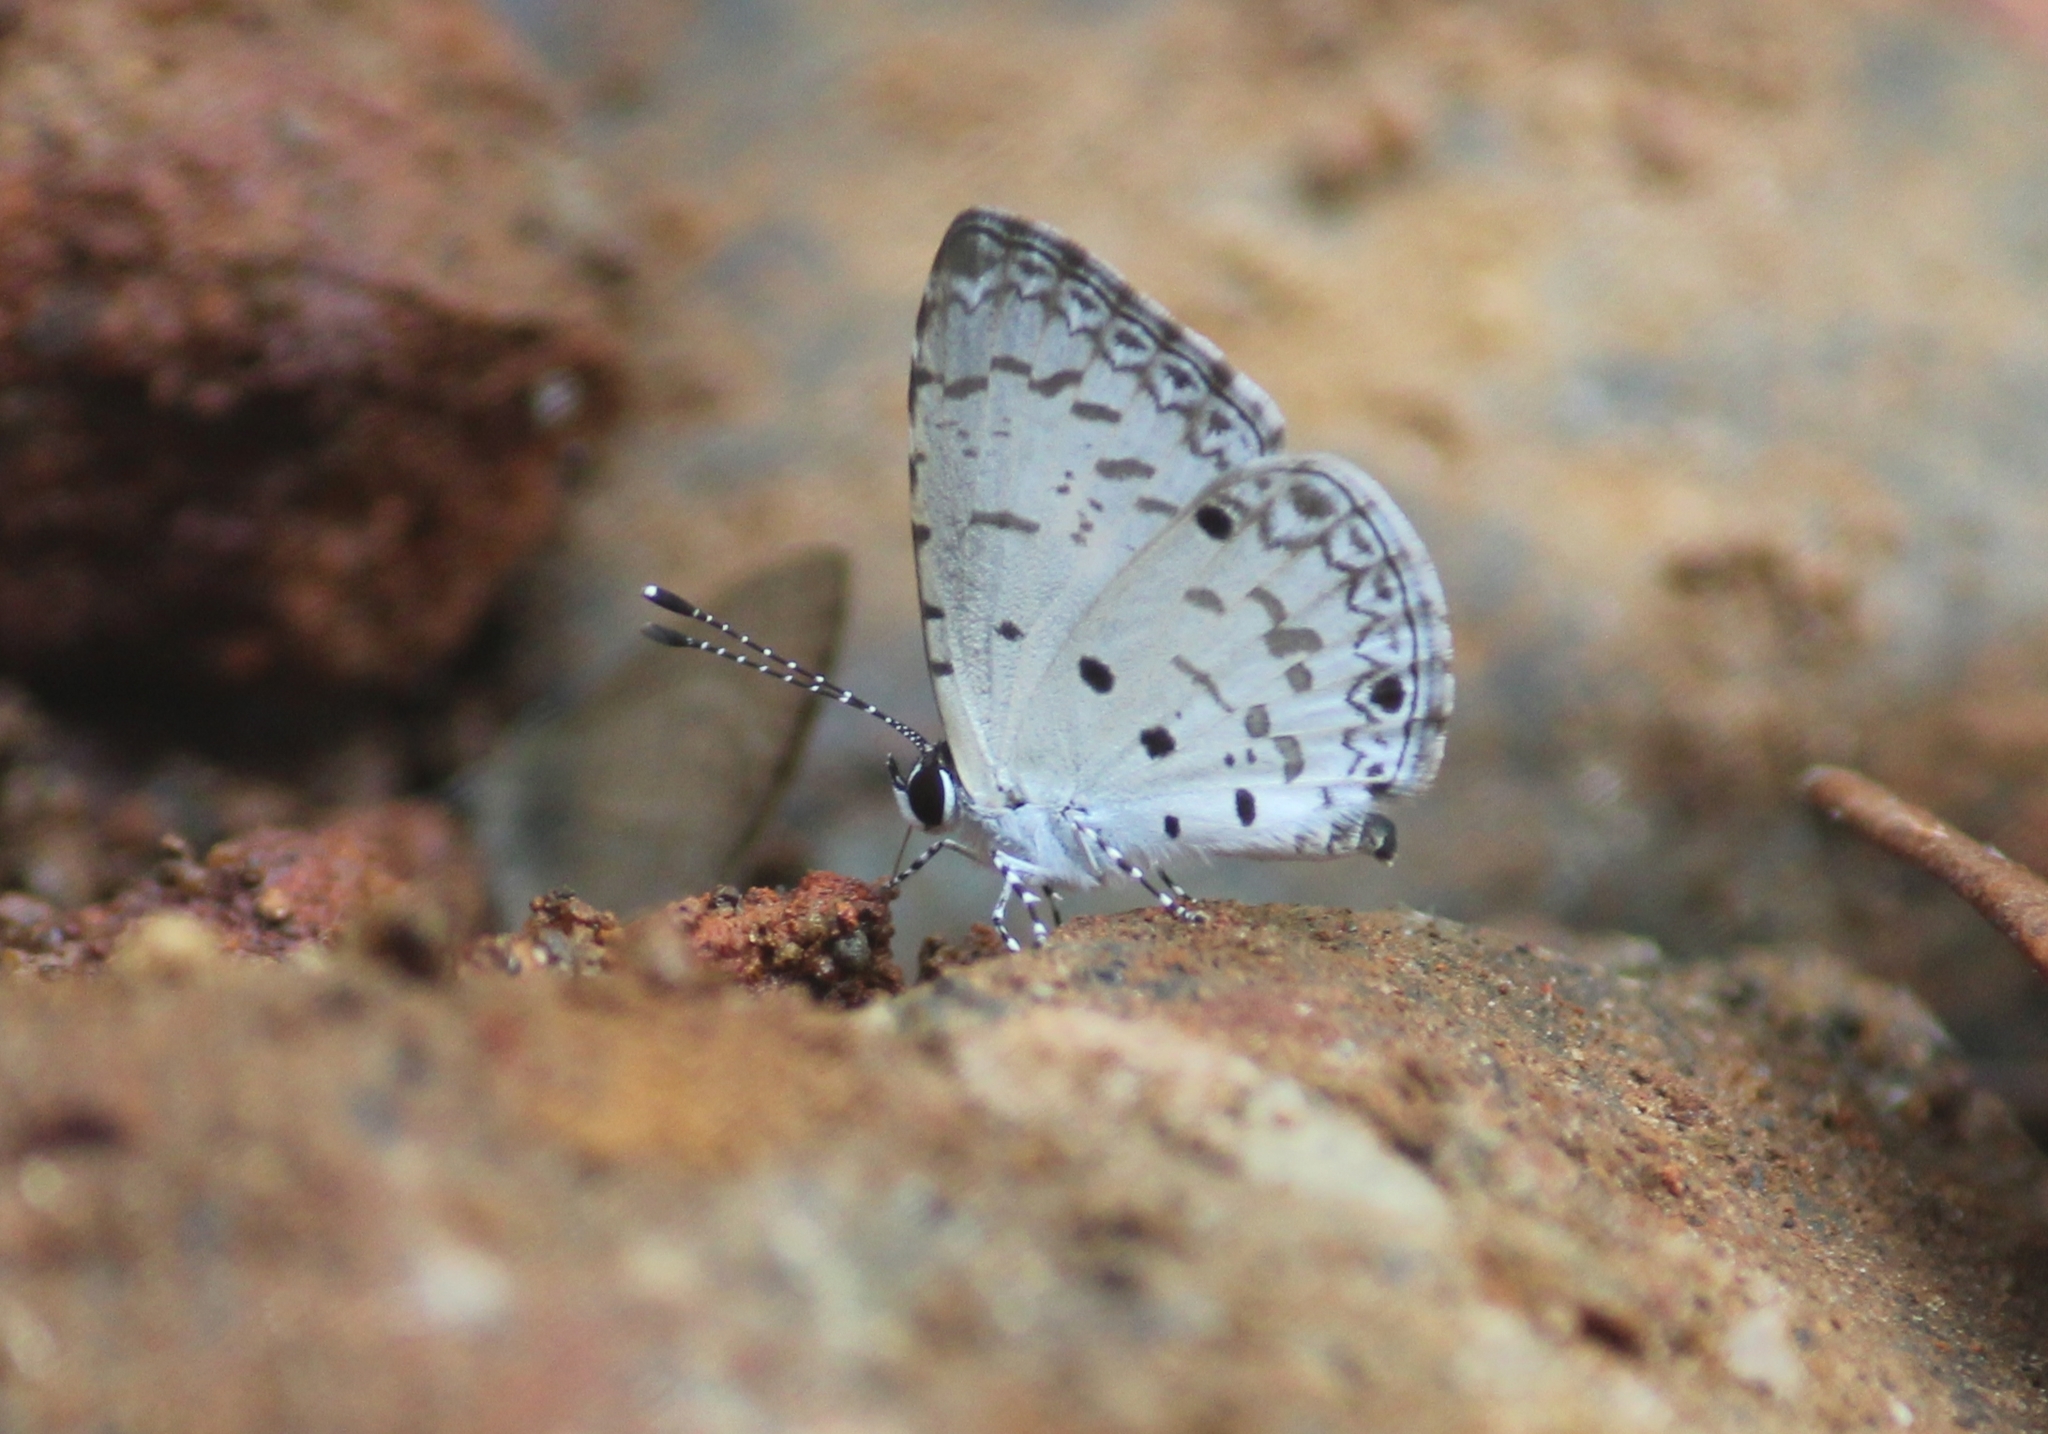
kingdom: Animalia
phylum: Arthropoda
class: Insecta
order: Lepidoptera
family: Lycaenidae
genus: Megisba
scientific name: Megisba malaya
